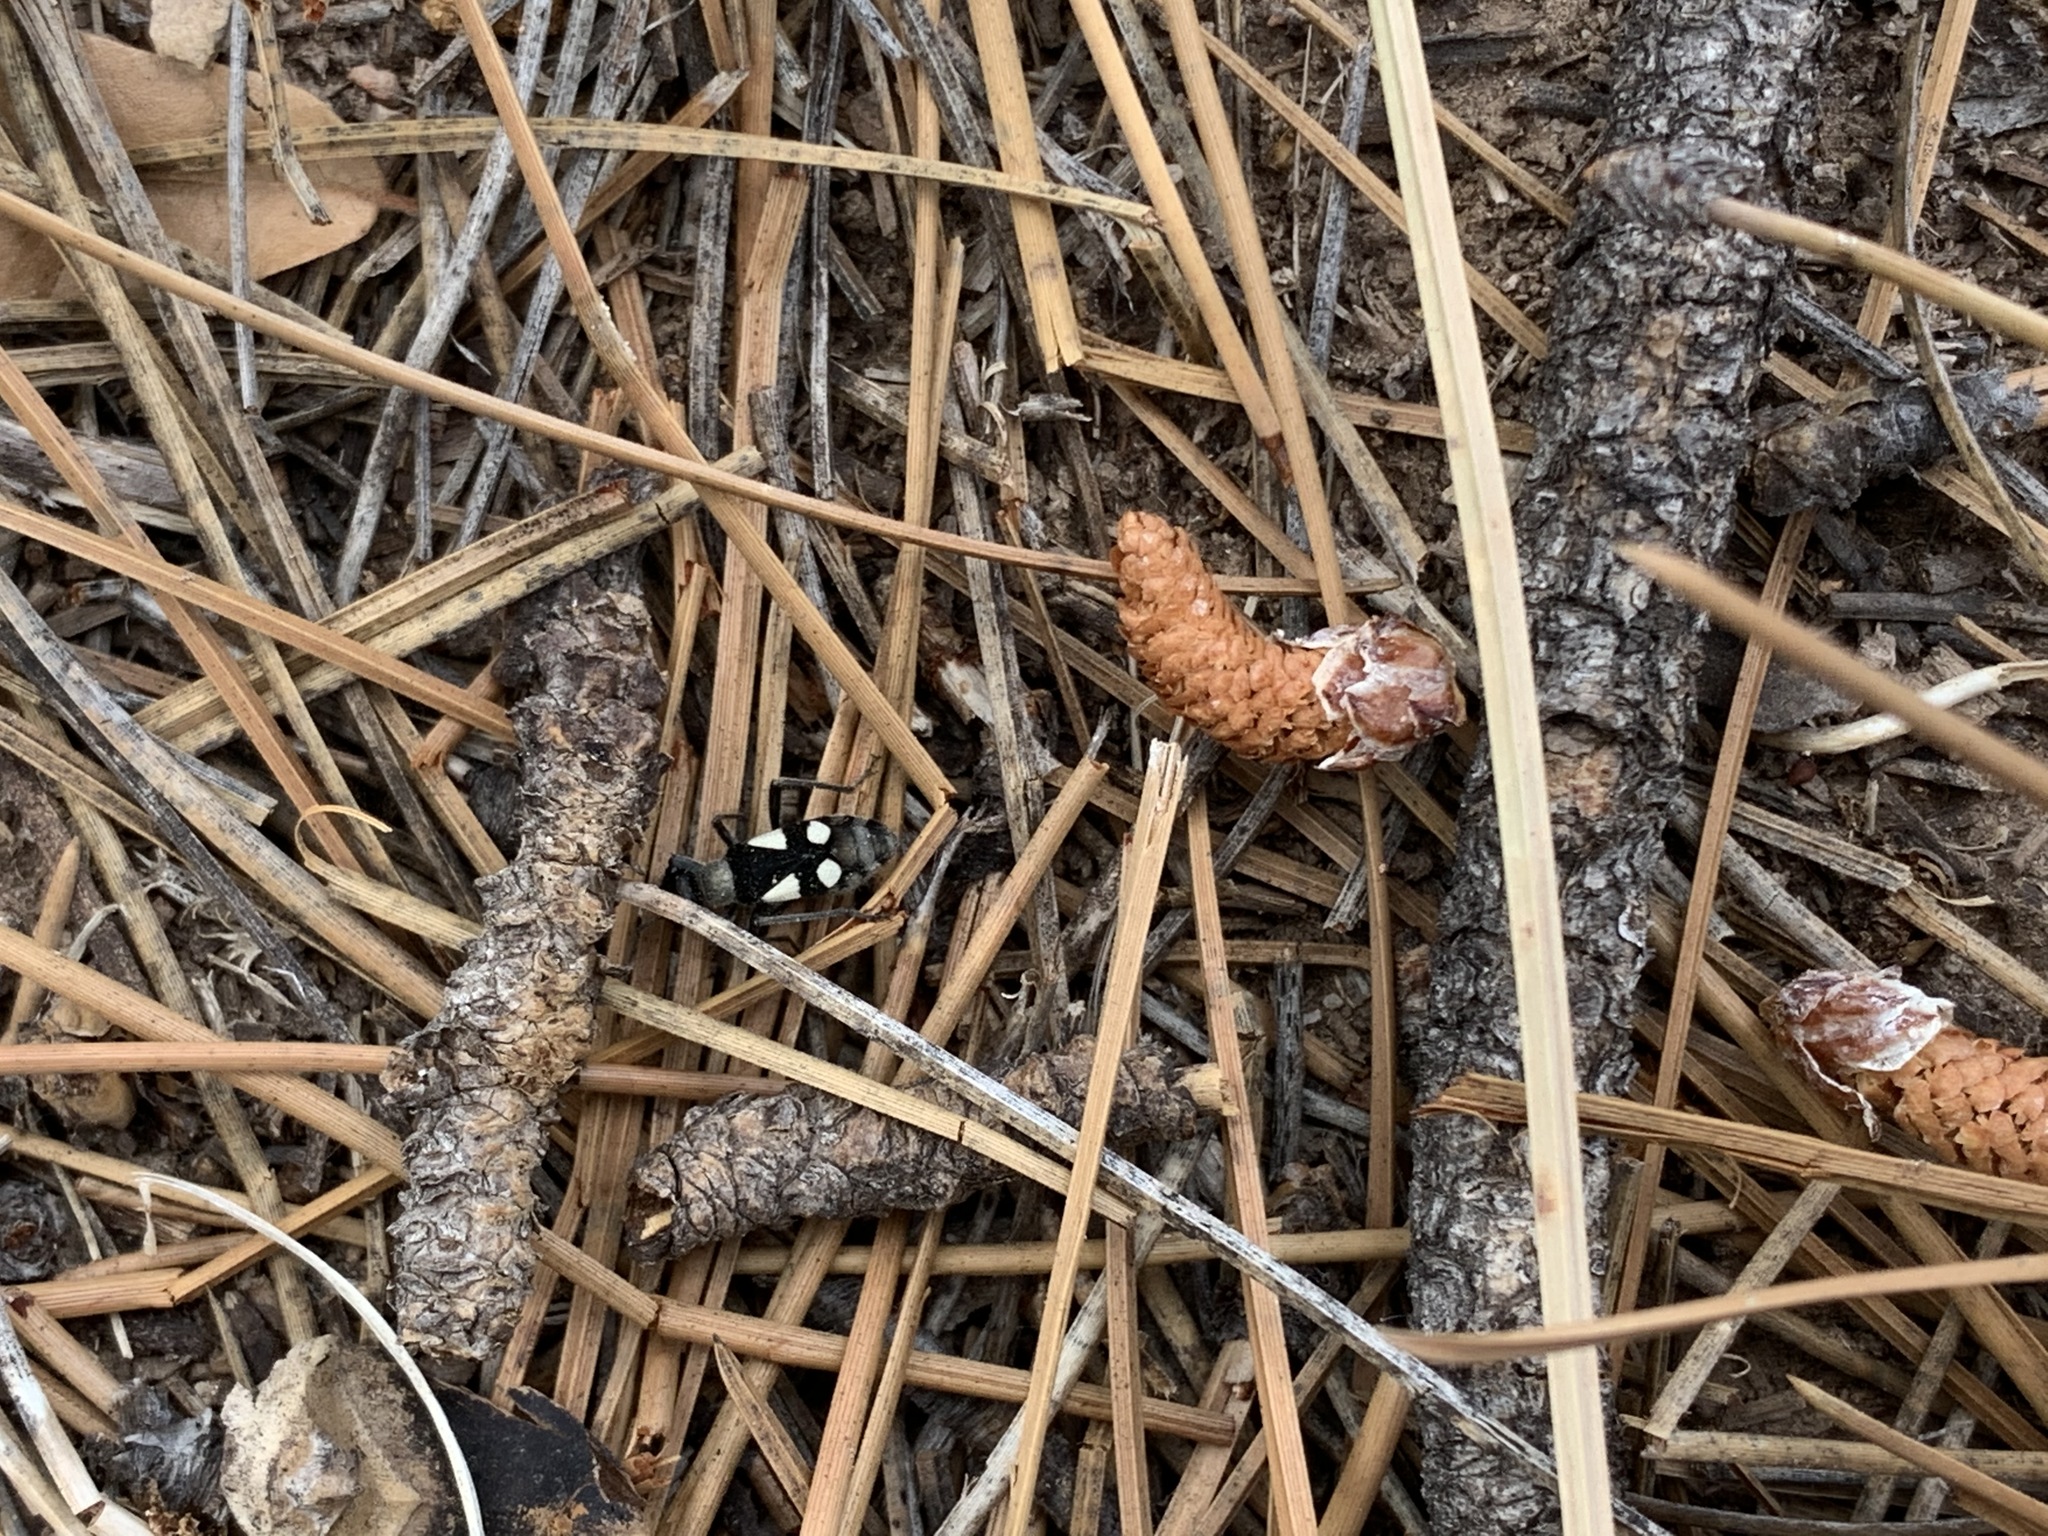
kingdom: Animalia
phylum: Arthropoda
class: Insecta
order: Hemiptera
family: Largidae
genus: Arhaphe
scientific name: Arhaphe arguta
